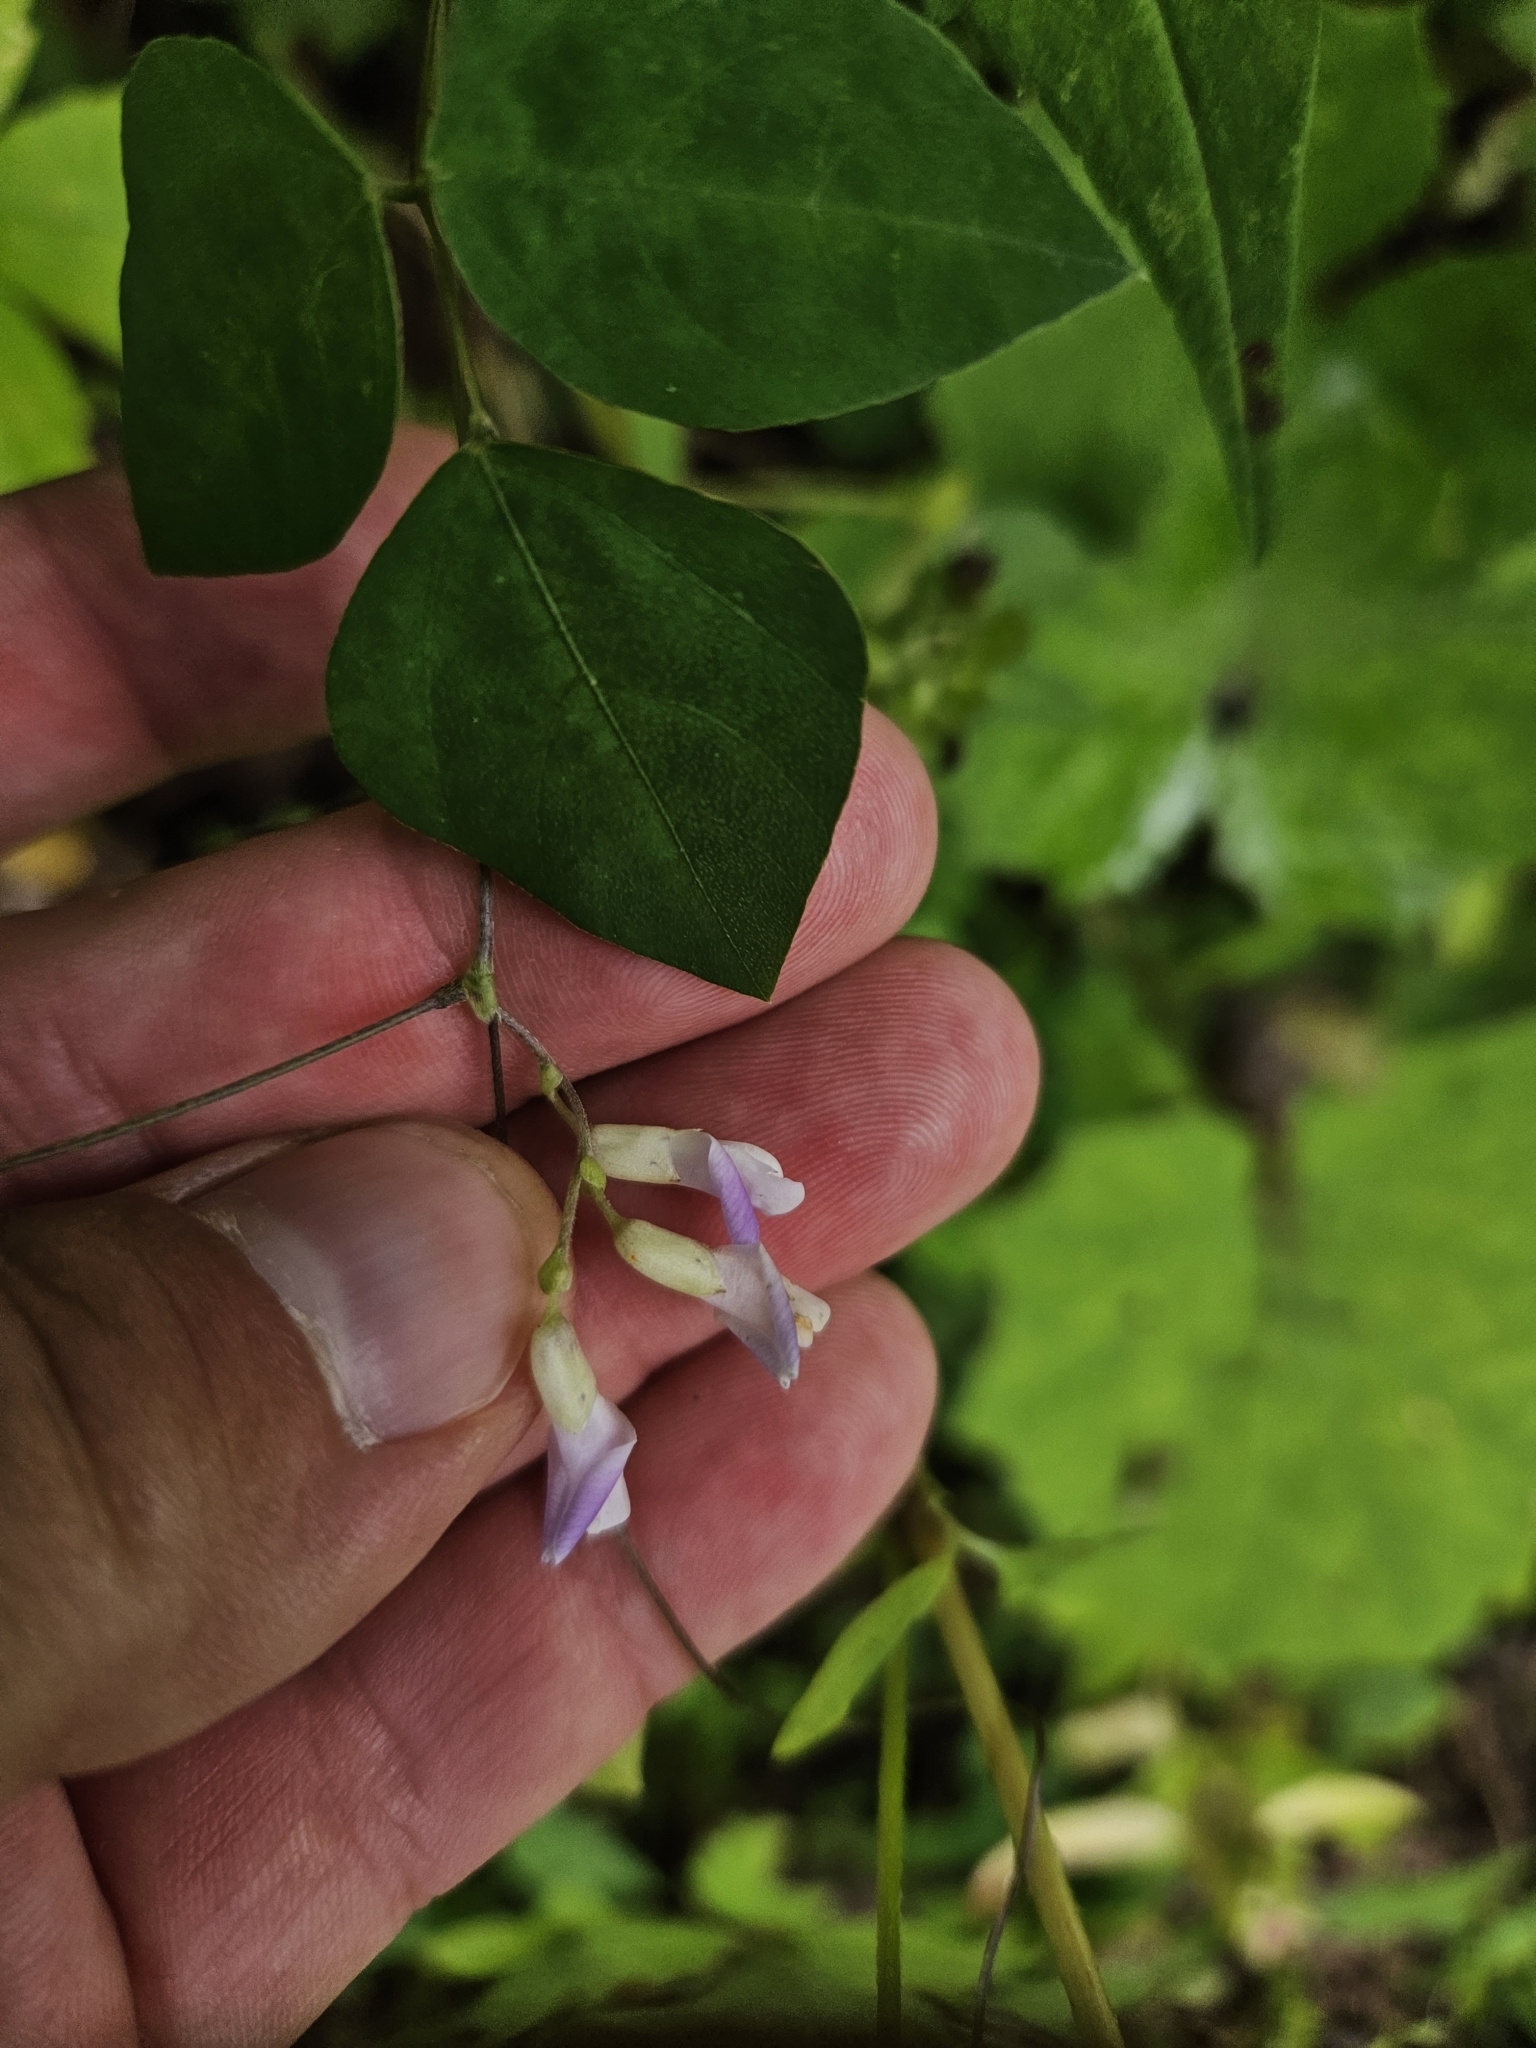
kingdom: Plantae
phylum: Tracheophyta
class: Magnoliopsida
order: Fabales
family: Fabaceae
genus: Amphicarpaea
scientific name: Amphicarpaea bracteata
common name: American hog peanut
